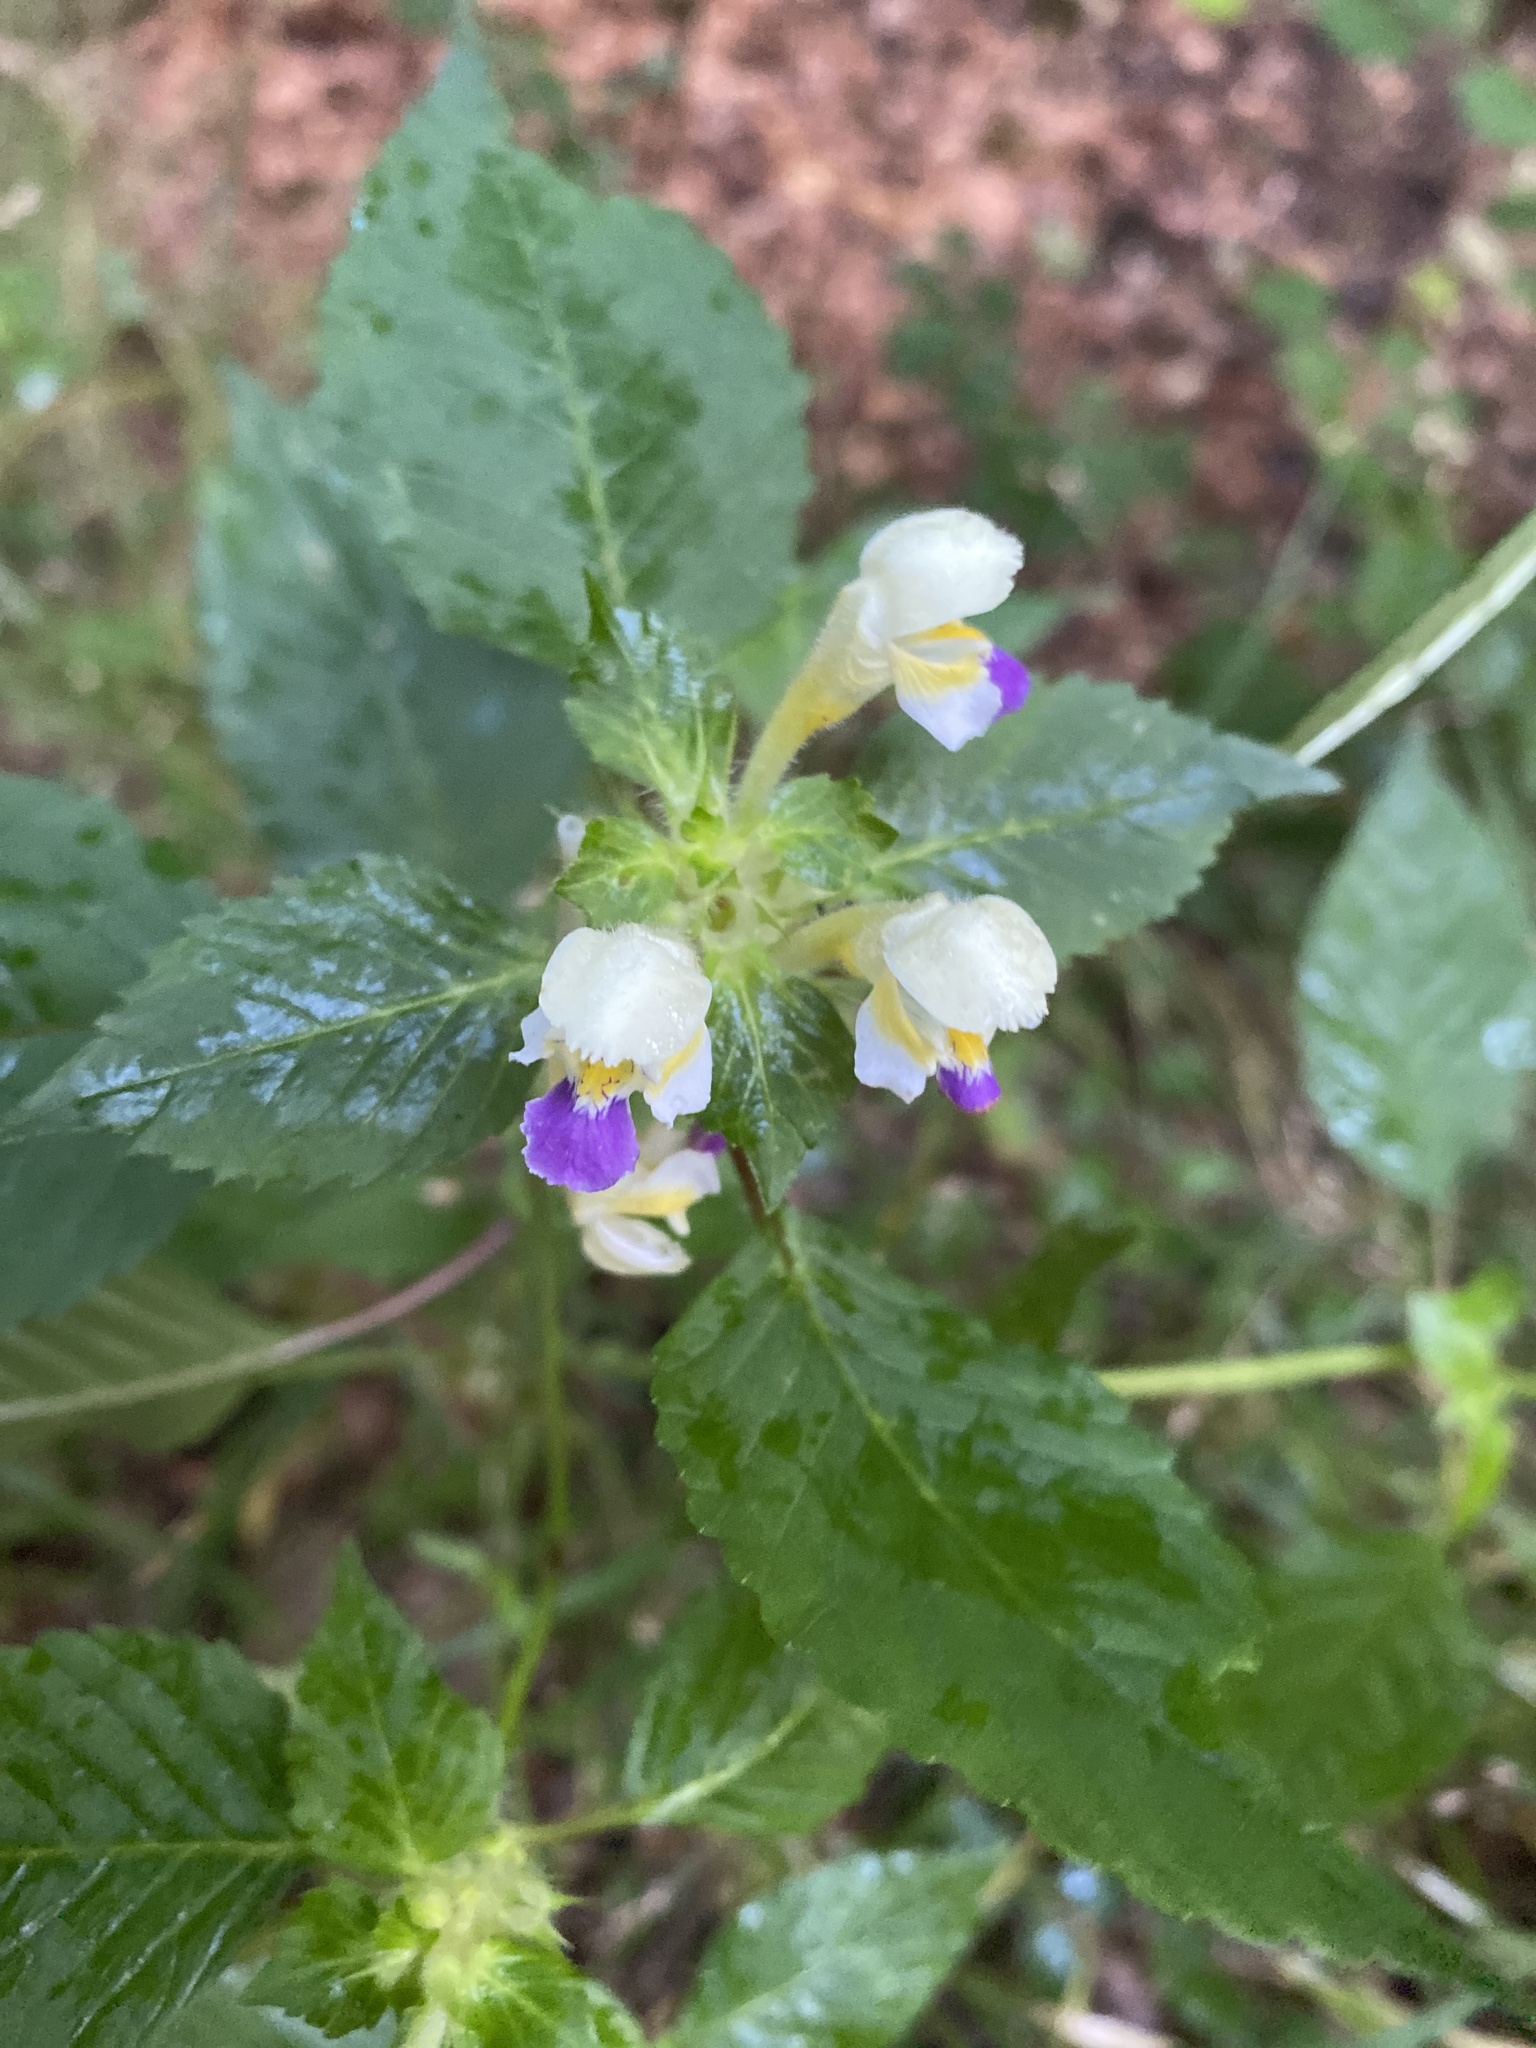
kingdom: Plantae
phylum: Tracheophyta
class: Magnoliopsida
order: Lamiales
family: Lamiaceae
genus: Galeopsis
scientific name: Galeopsis speciosa
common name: Large-flowered hemp-nettle
